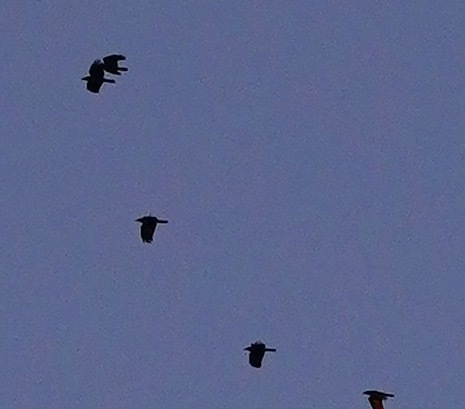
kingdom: Animalia
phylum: Chordata
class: Aves
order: Passeriformes
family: Corvidae
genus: Corvus
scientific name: Corvus brachyrhynchos
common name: American crow
